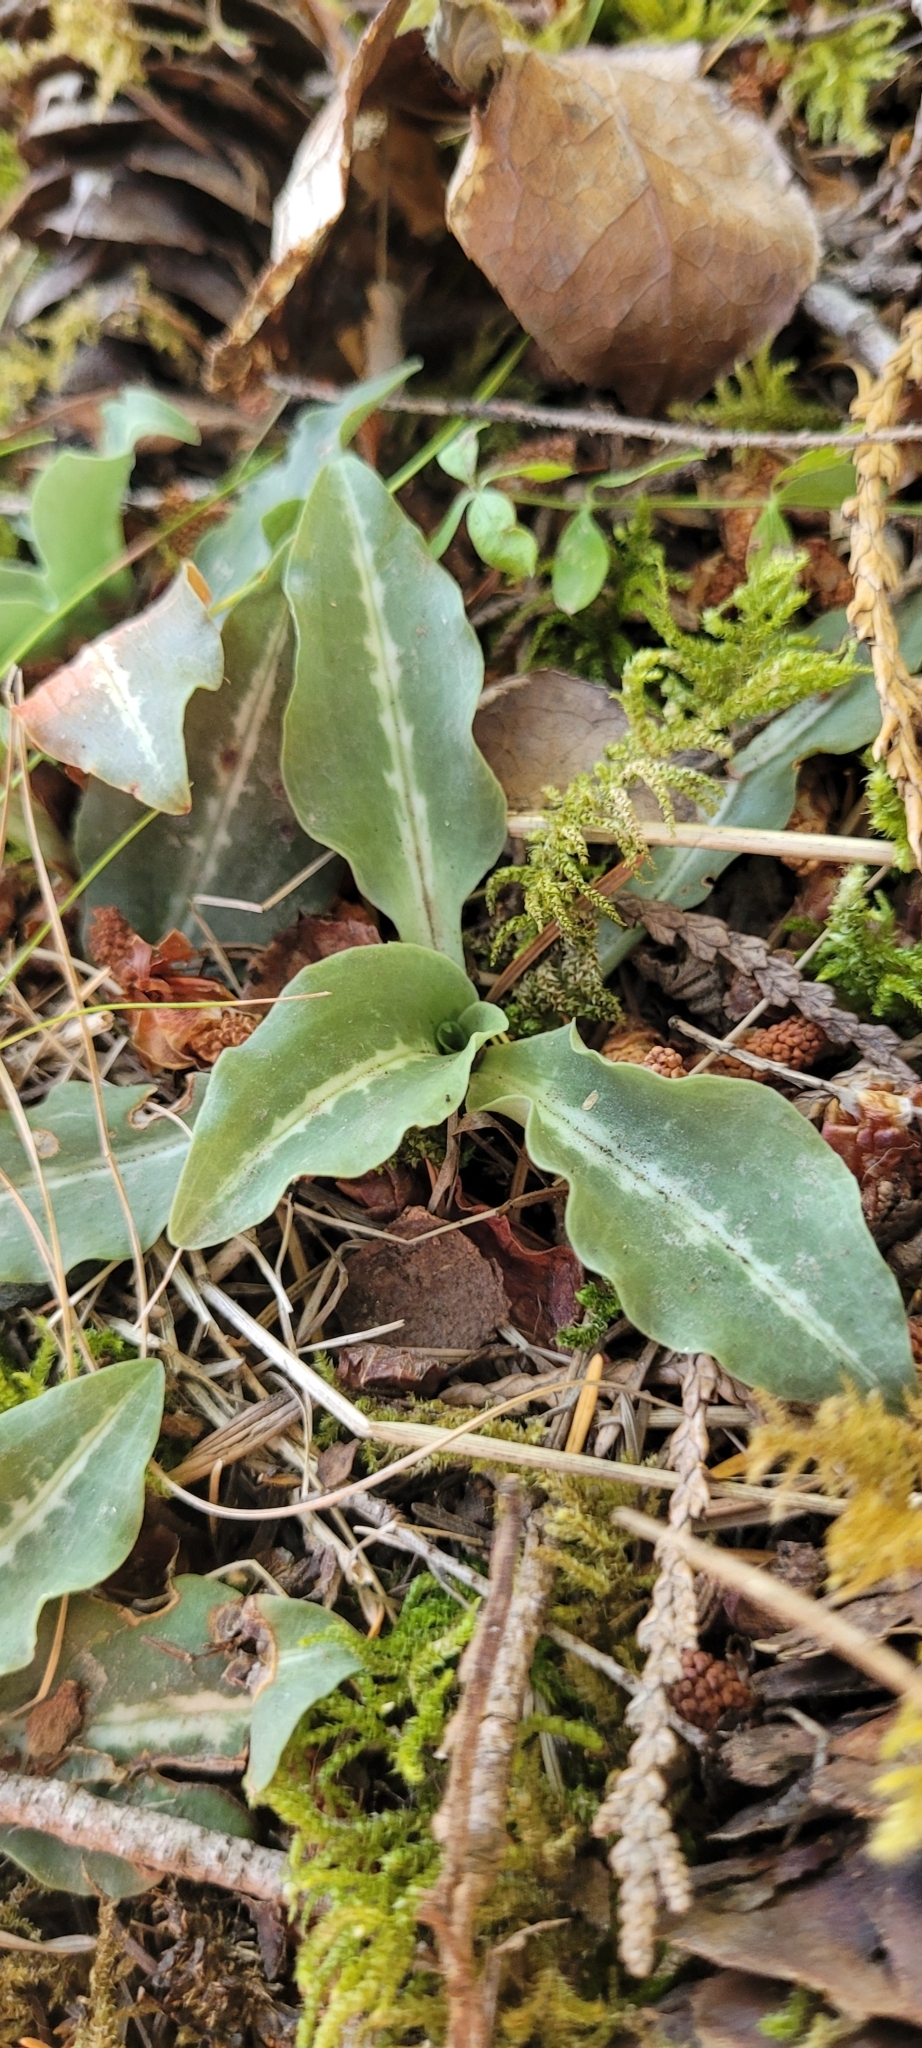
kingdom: Plantae
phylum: Tracheophyta
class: Liliopsida
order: Asparagales
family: Orchidaceae
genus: Goodyera
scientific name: Goodyera oblongifolia
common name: Giant rattlesnake-plantain
